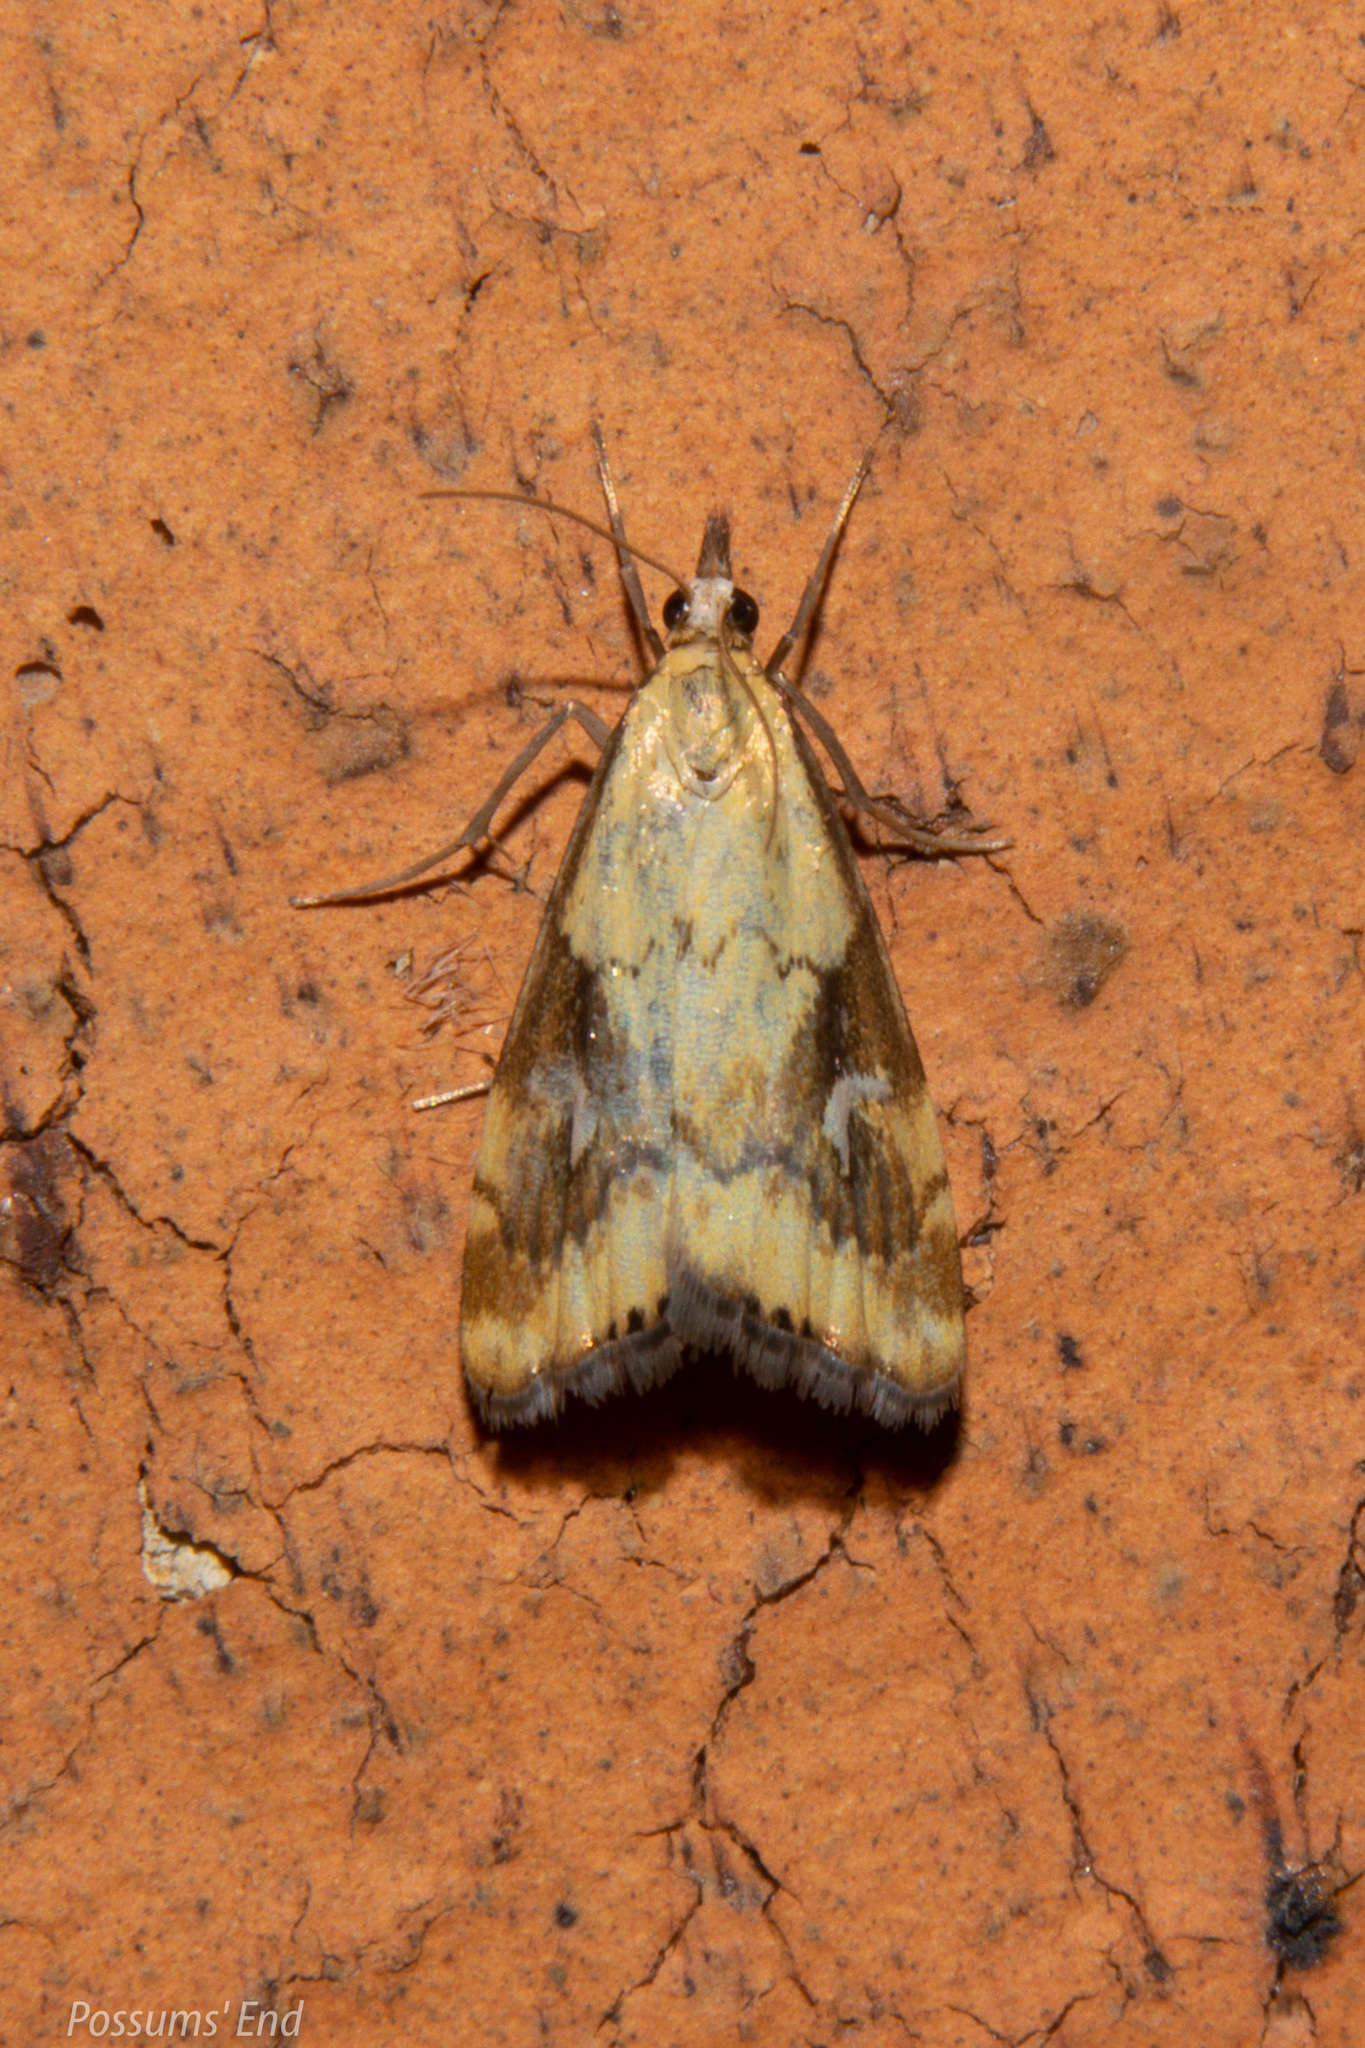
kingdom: Animalia
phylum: Arthropoda
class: Insecta
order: Lepidoptera
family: Crambidae
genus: Glaucocharis
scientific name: Glaucocharis lepidella
